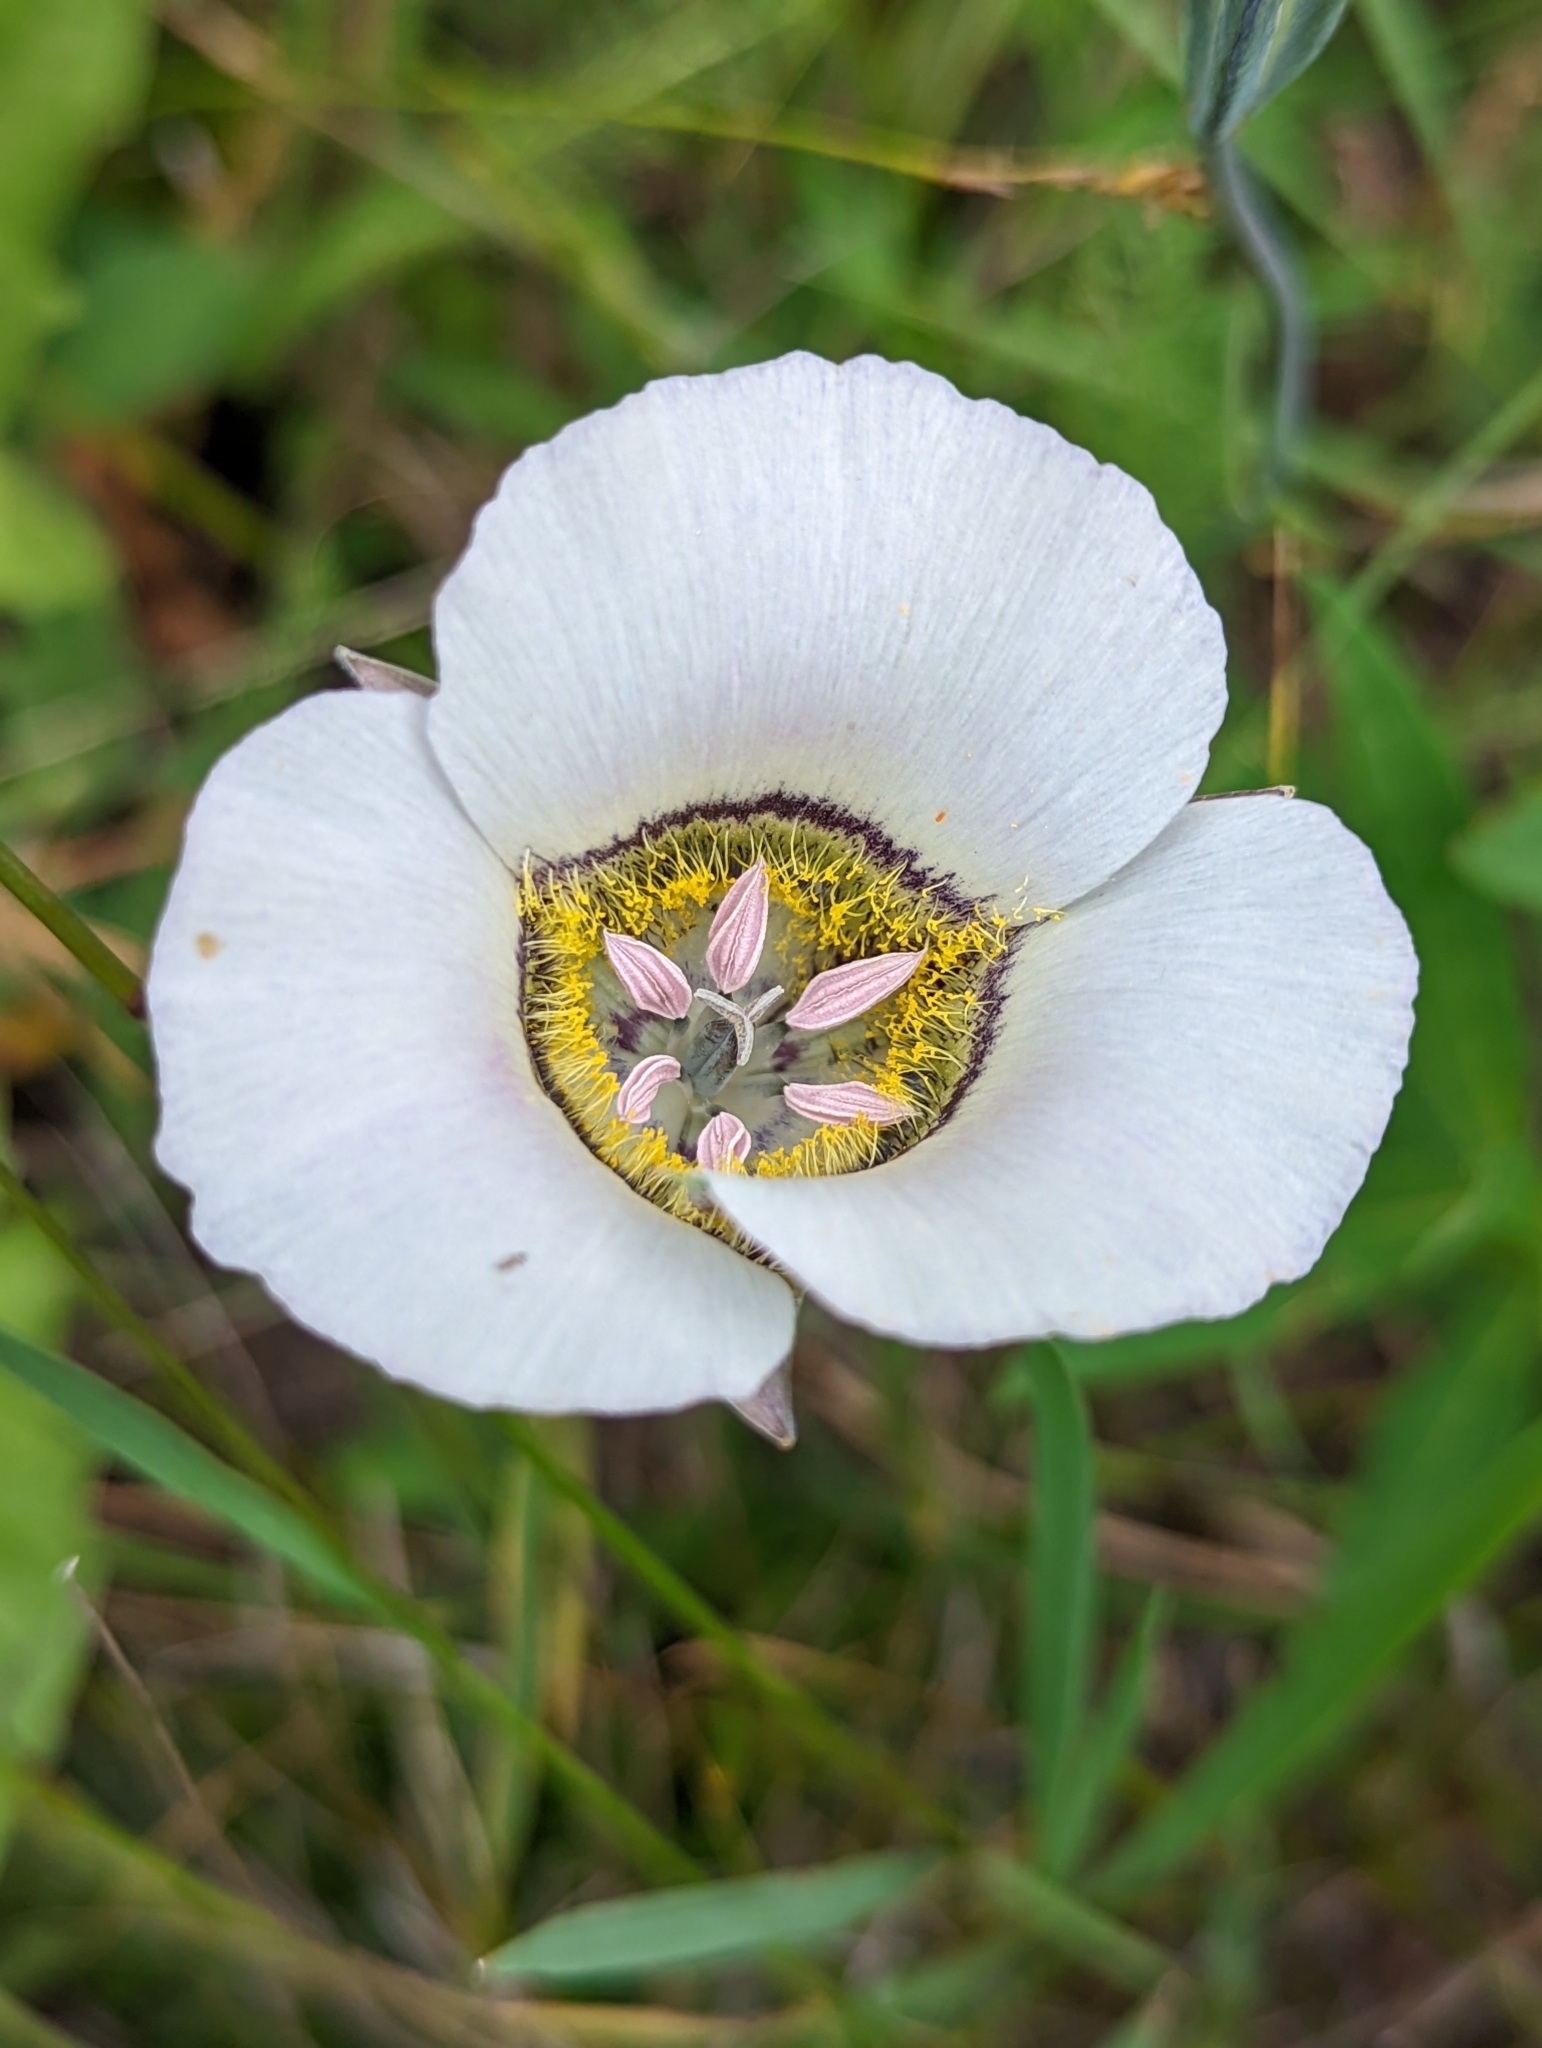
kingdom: Plantae
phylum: Tracheophyta
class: Liliopsida
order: Liliales
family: Liliaceae
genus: Calochortus
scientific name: Calochortus gunnisonii
